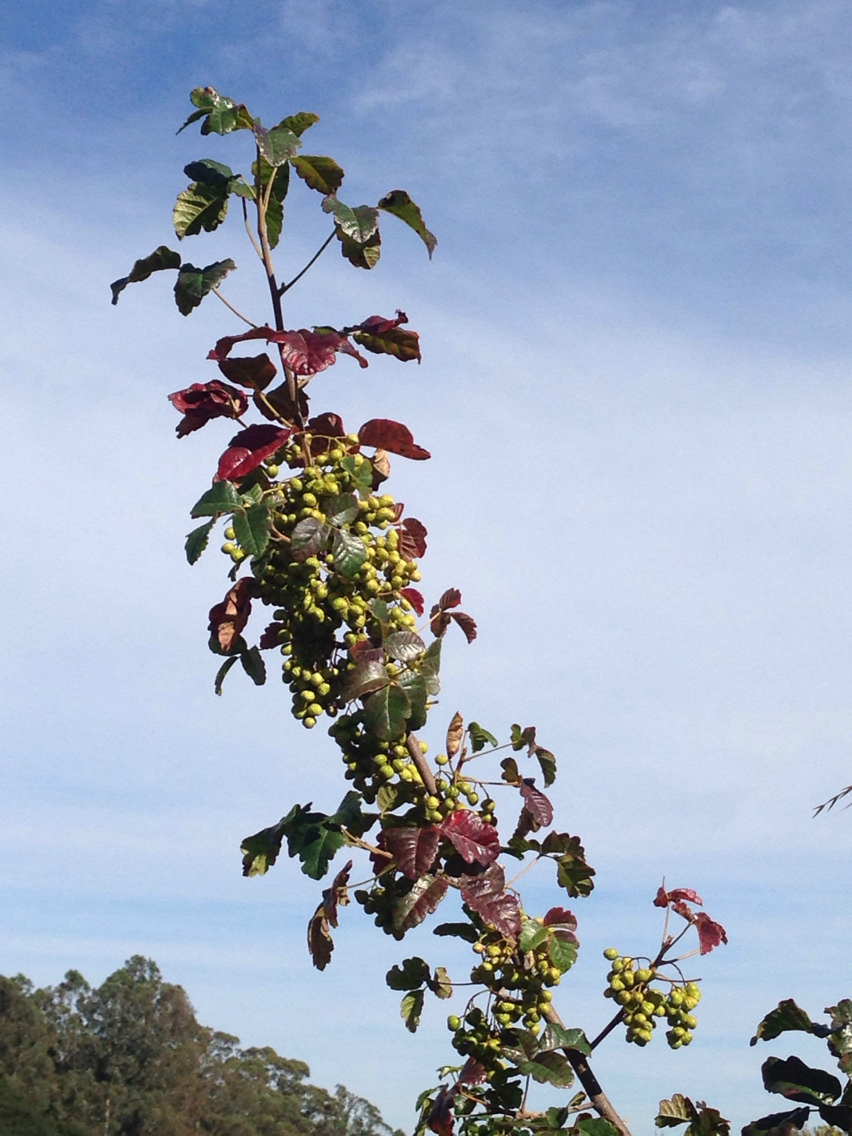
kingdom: Plantae
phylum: Tracheophyta
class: Magnoliopsida
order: Sapindales
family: Anacardiaceae
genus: Toxicodendron
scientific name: Toxicodendron diversilobum
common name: Pacific poison-oak
